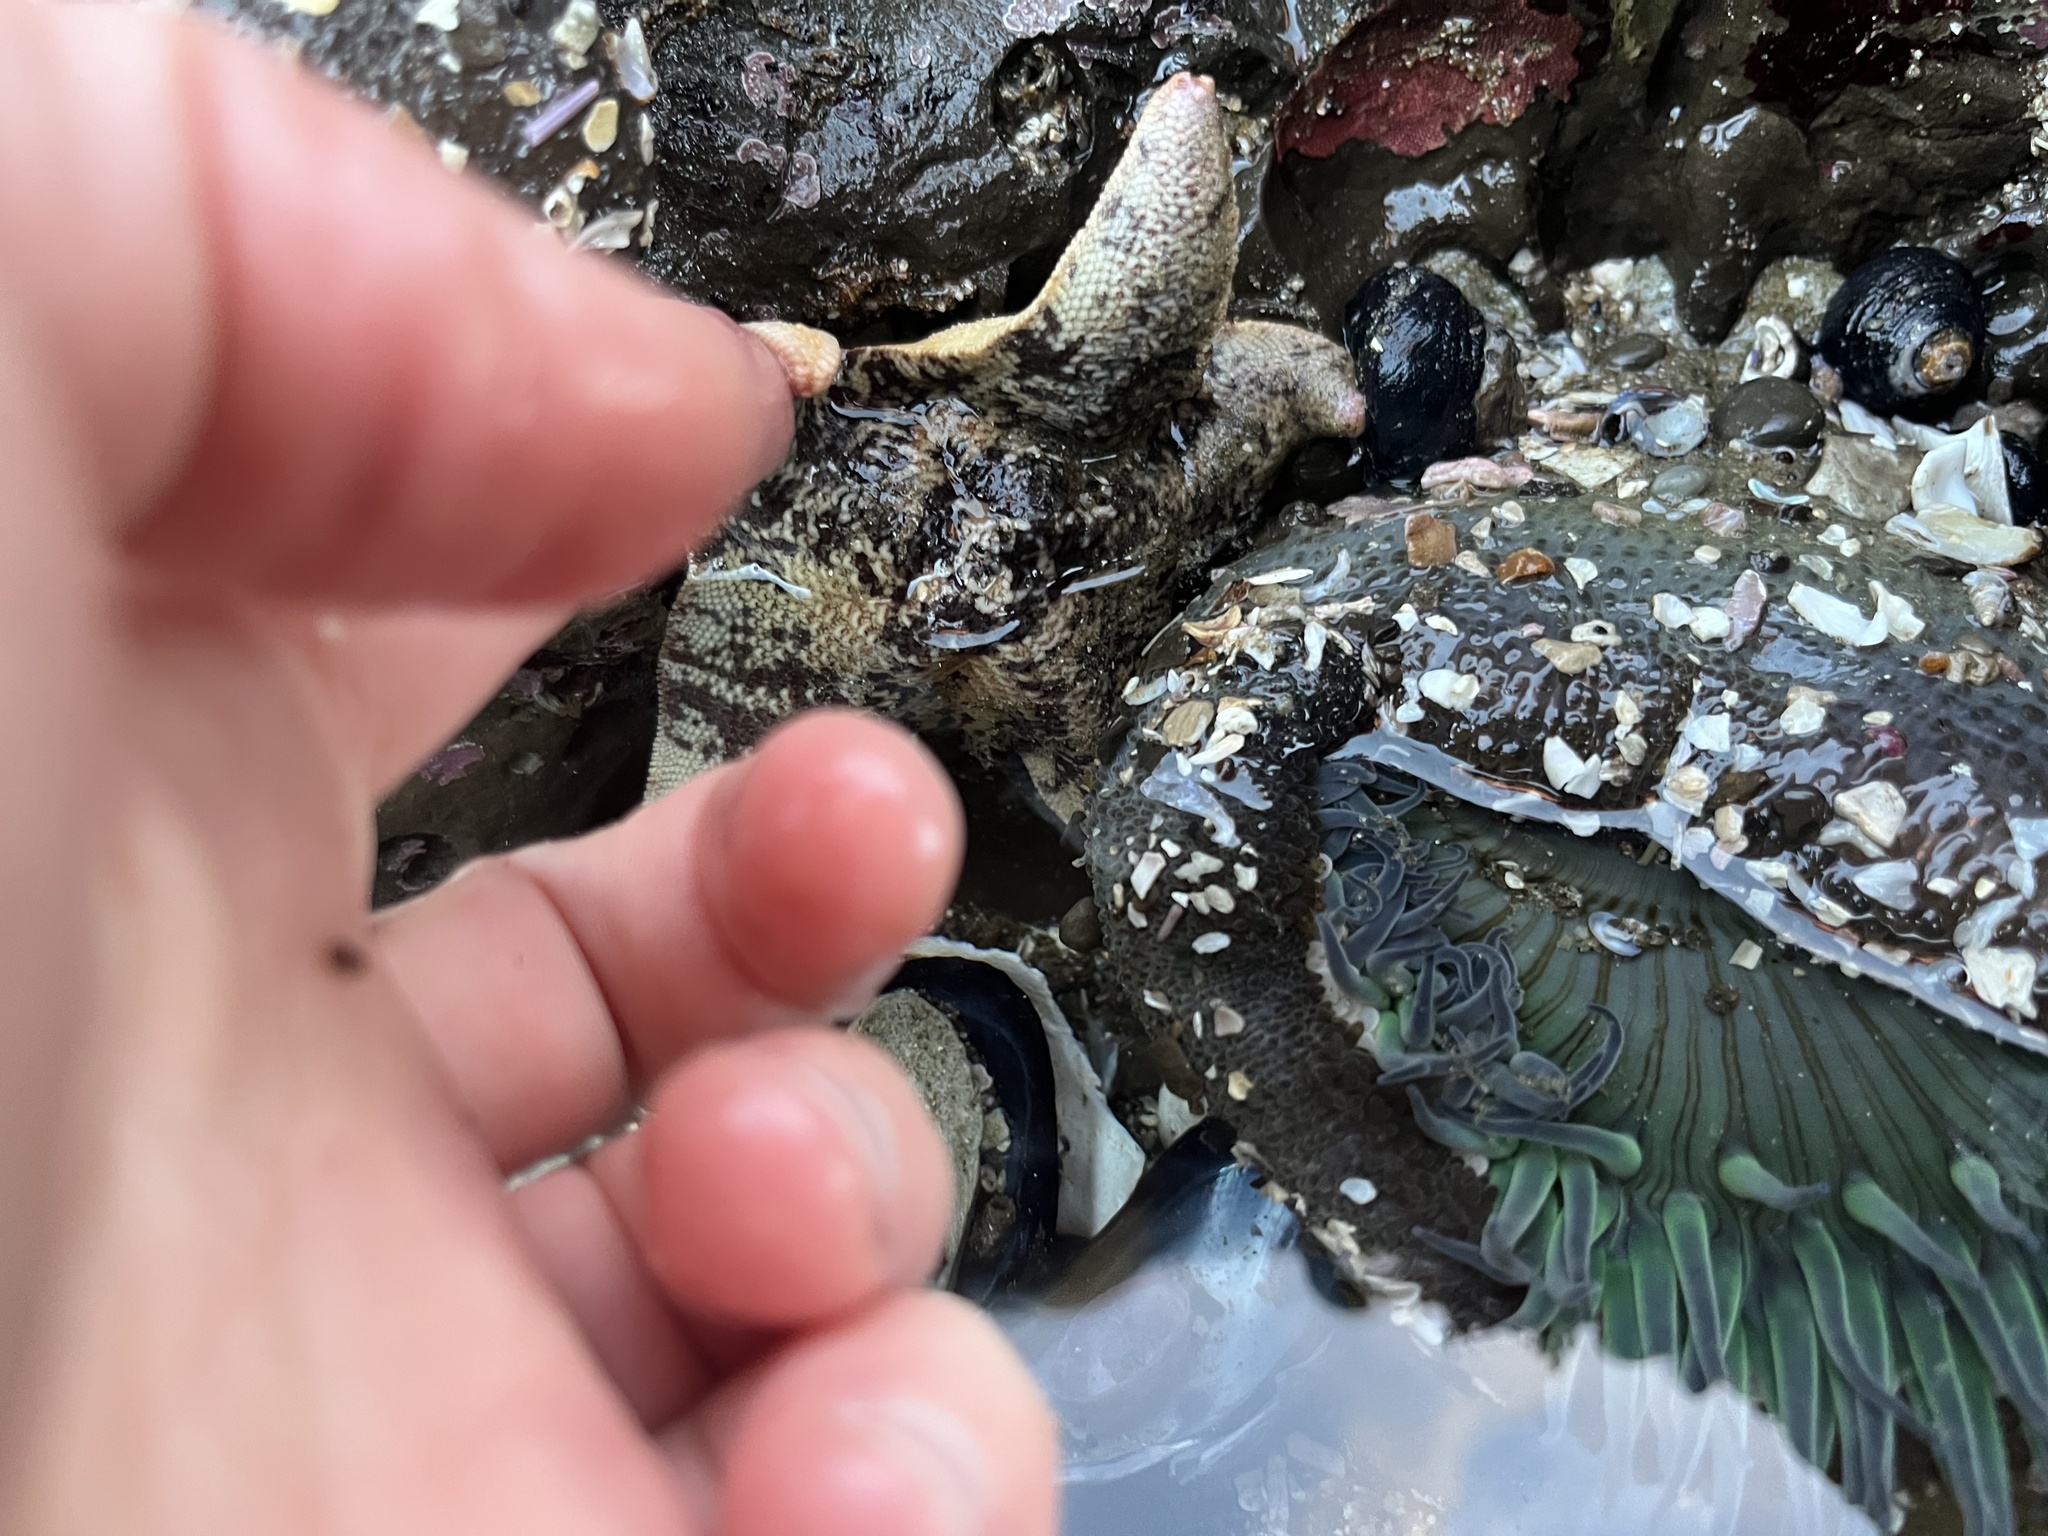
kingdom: Animalia
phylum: Echinodermata
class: Asteroidea
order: Valvatida
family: Asterinidae
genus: Patiria
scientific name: Patiria miniata
